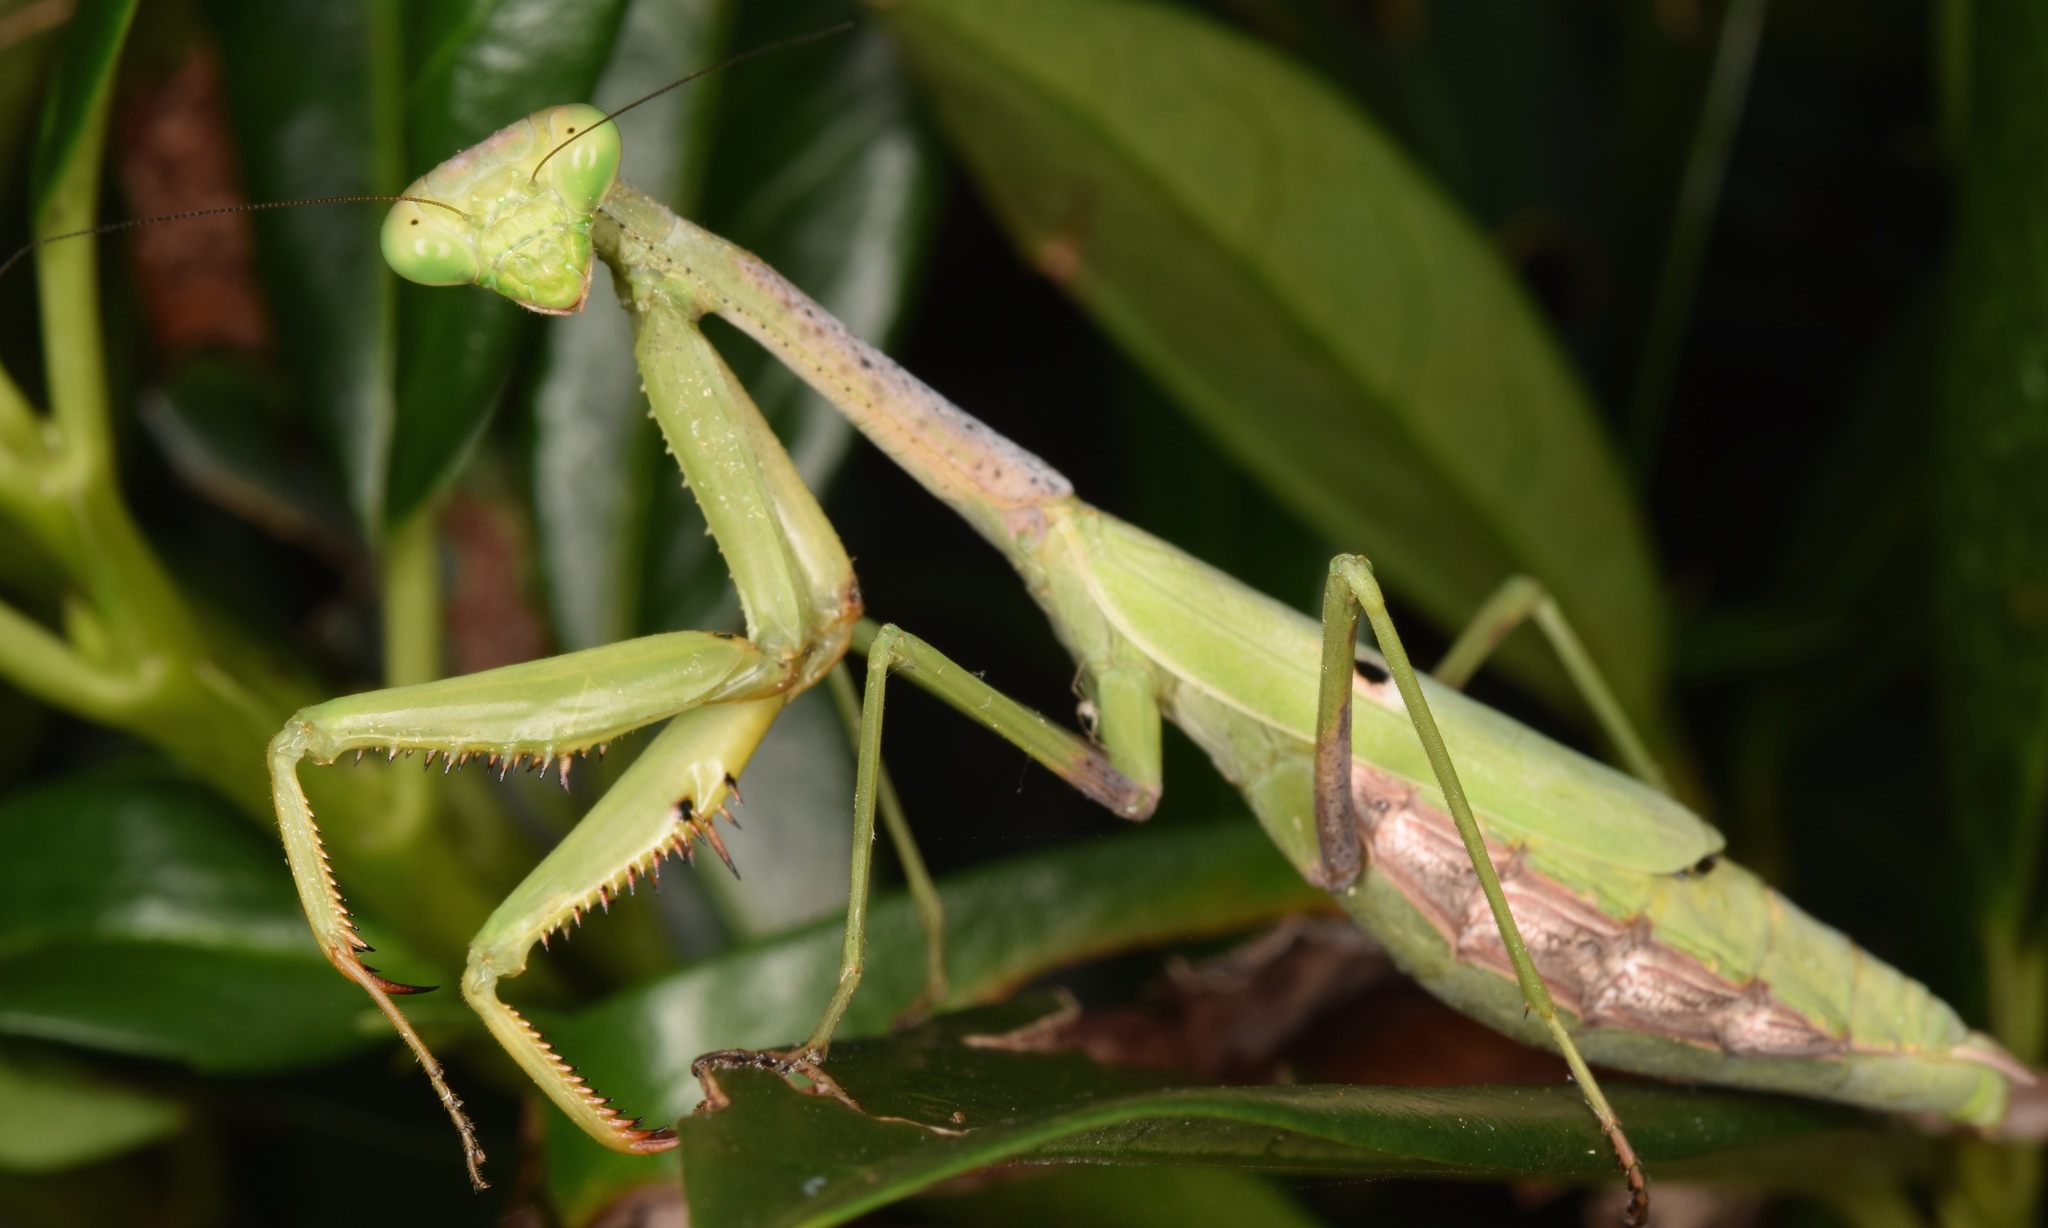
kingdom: Animalia
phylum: Arthropoda
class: Insecta
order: Mantodea
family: Mantidae
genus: Stagmomantis
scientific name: Stagmomantis carolina
